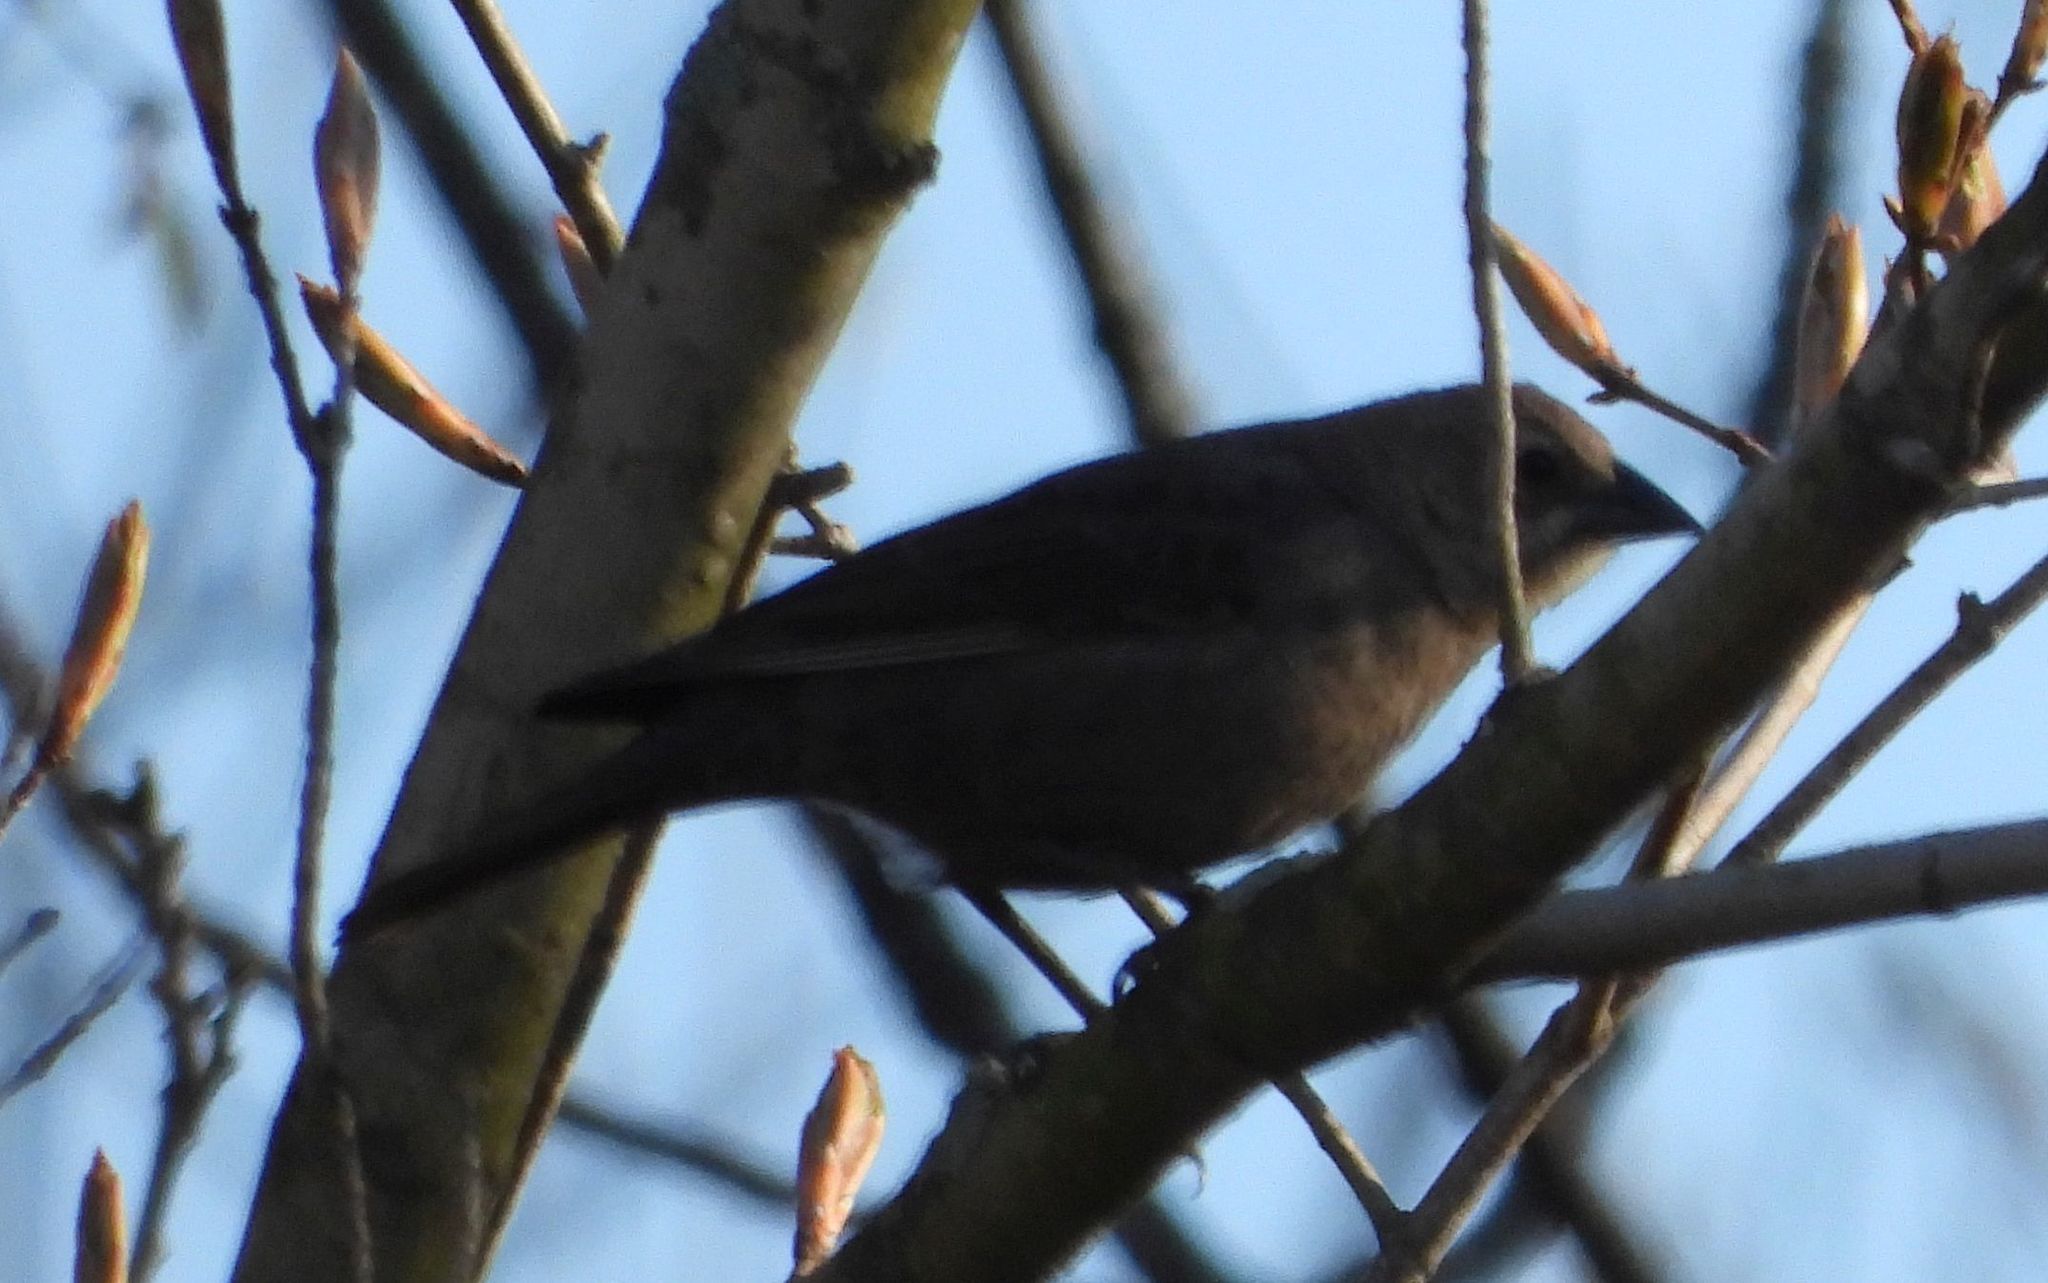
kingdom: Animalia
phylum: Chordata
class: Aves
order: Passeriformes
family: Icteridae
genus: Molothrus
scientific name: Molothrus ater
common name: Brown-headed cowbird
